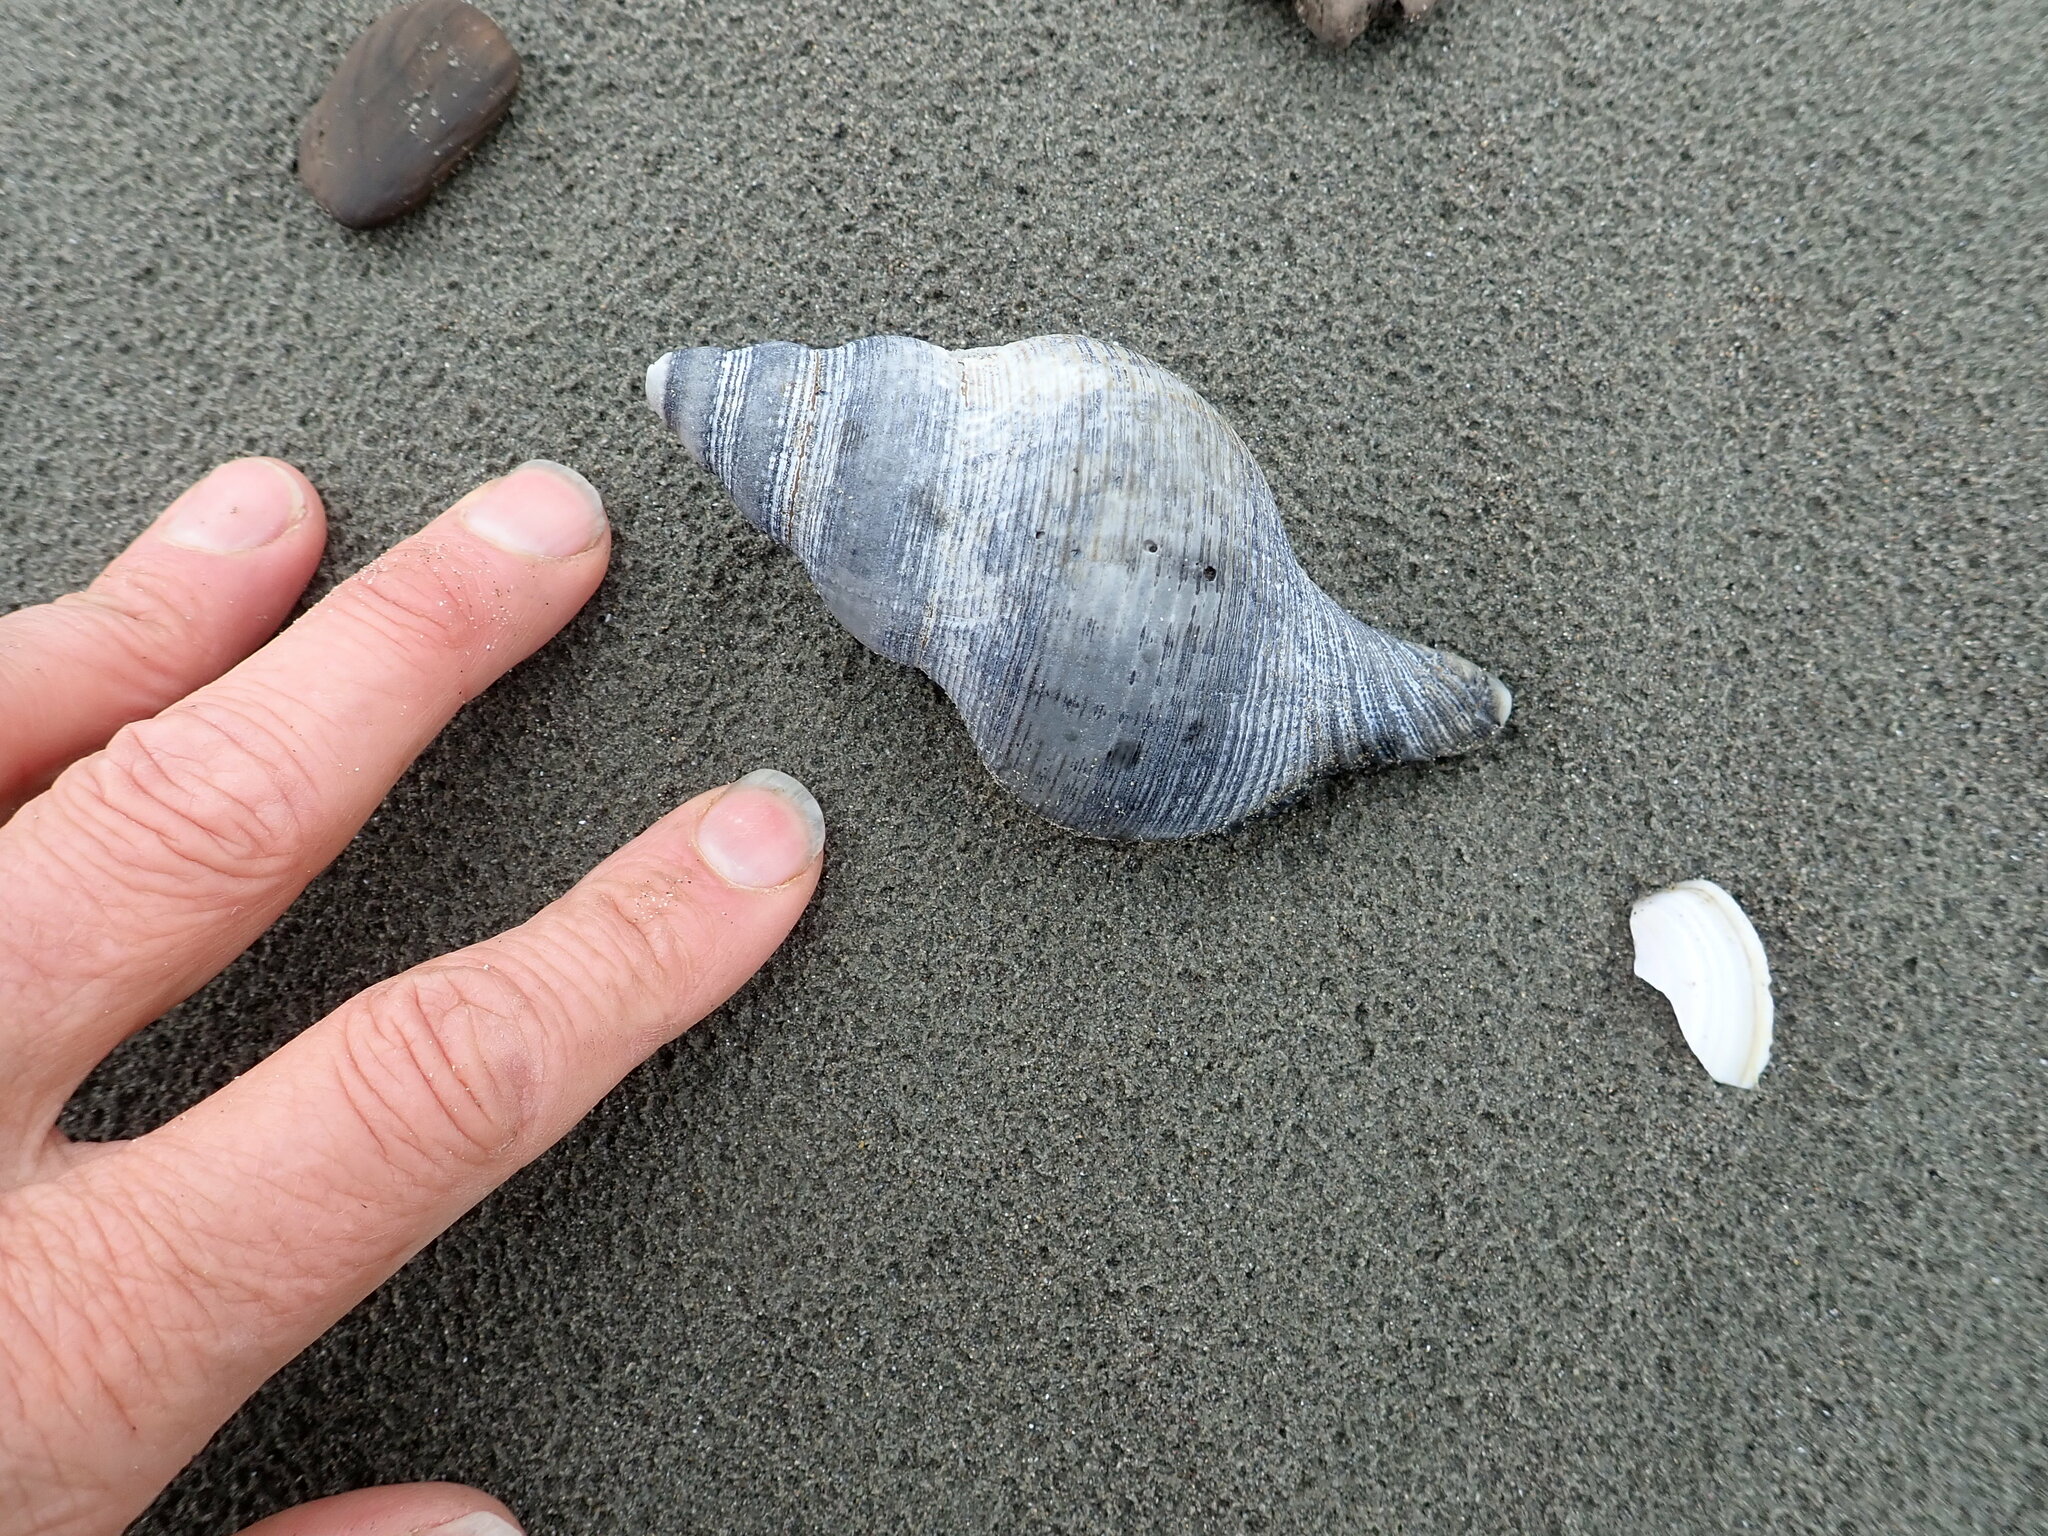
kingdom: Animalia
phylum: Mollusca
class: Gastropoda
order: Neogastropoda
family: Austrosiphonidae
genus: Penion
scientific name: Penion sulcatus
